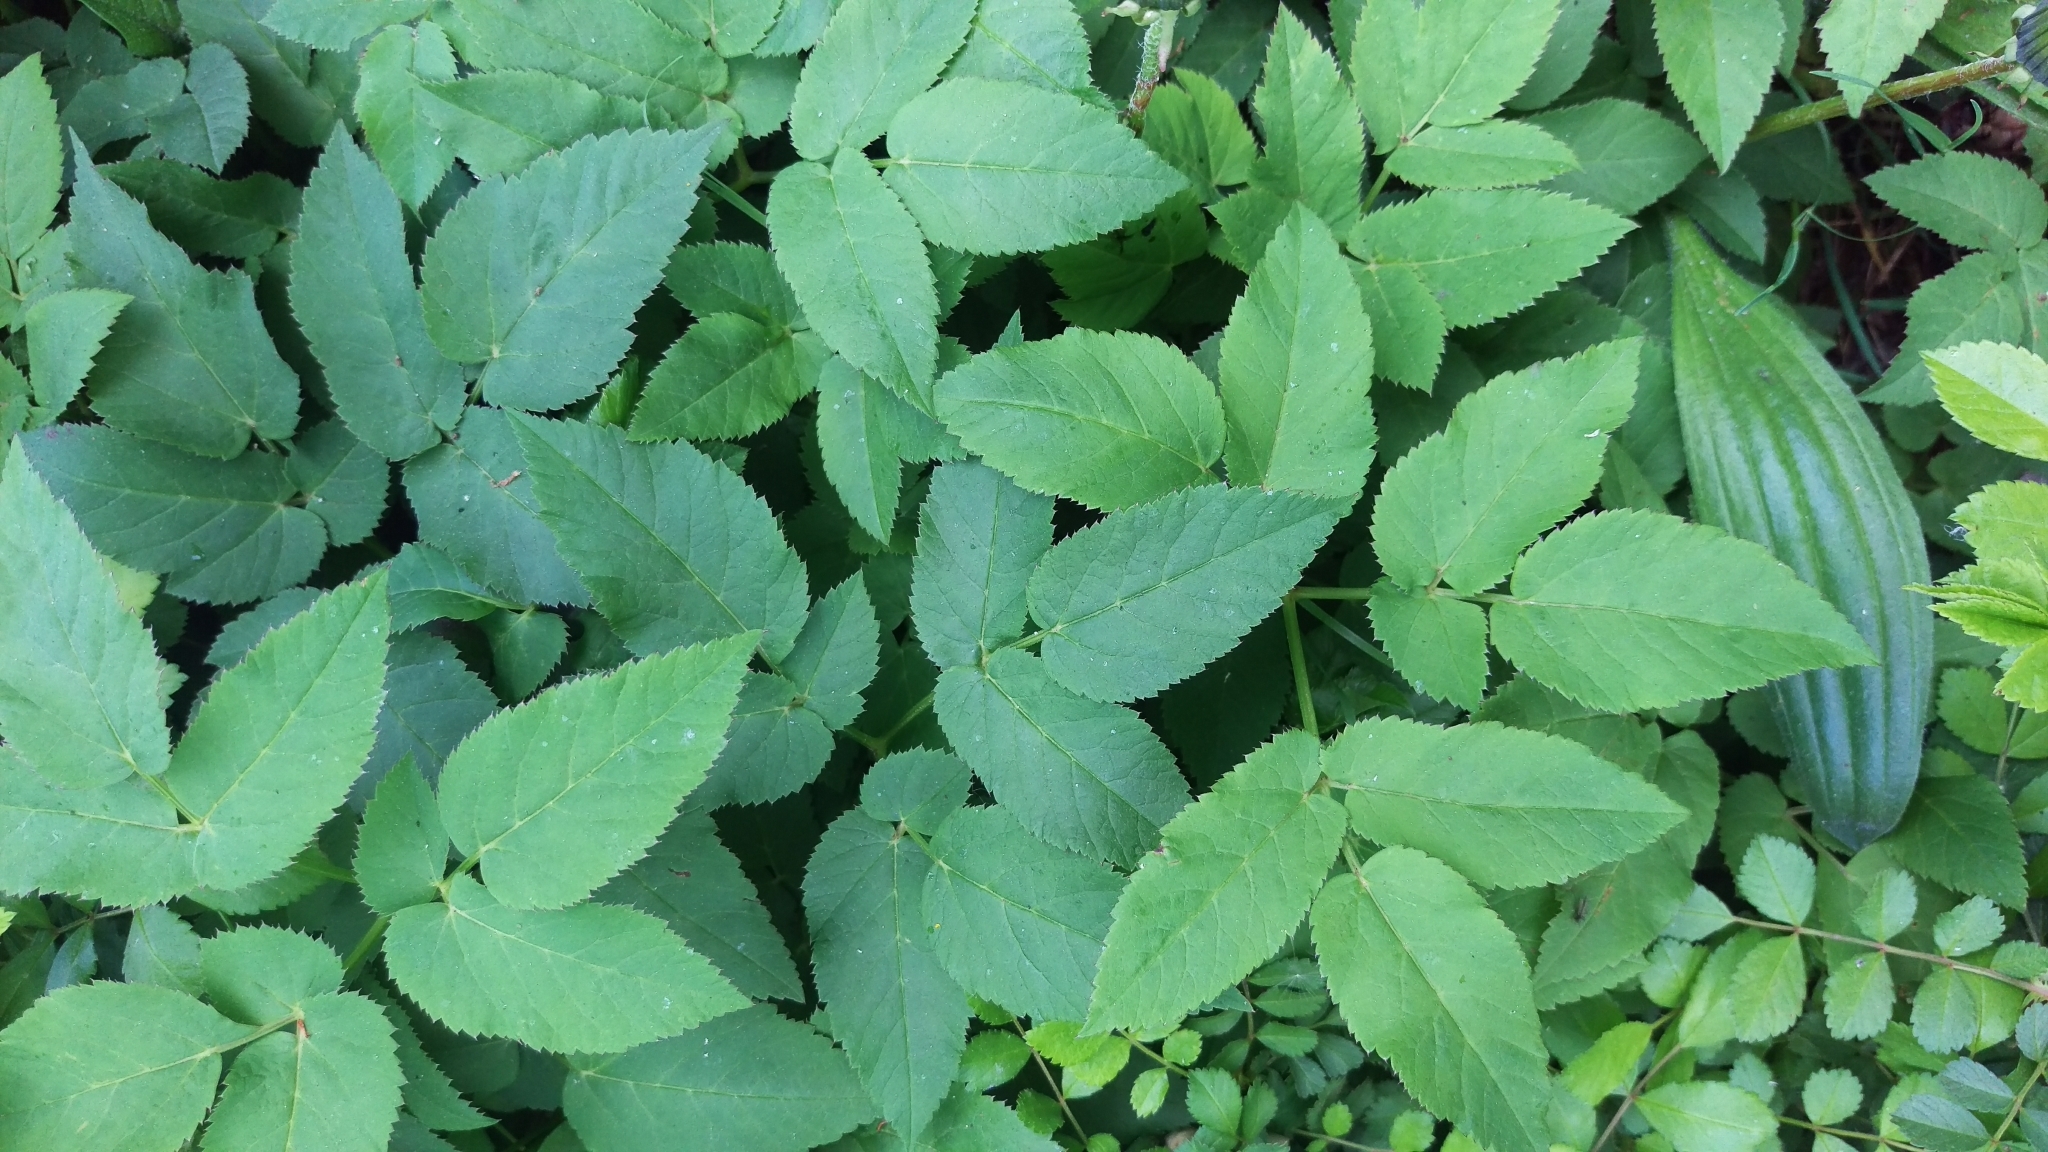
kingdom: Plantae
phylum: Tracheophyta
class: Magnoliopsida
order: Apiales
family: Apiaceae
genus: Aegopodium
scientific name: Aegopodium podagraria
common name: Ground-elder
